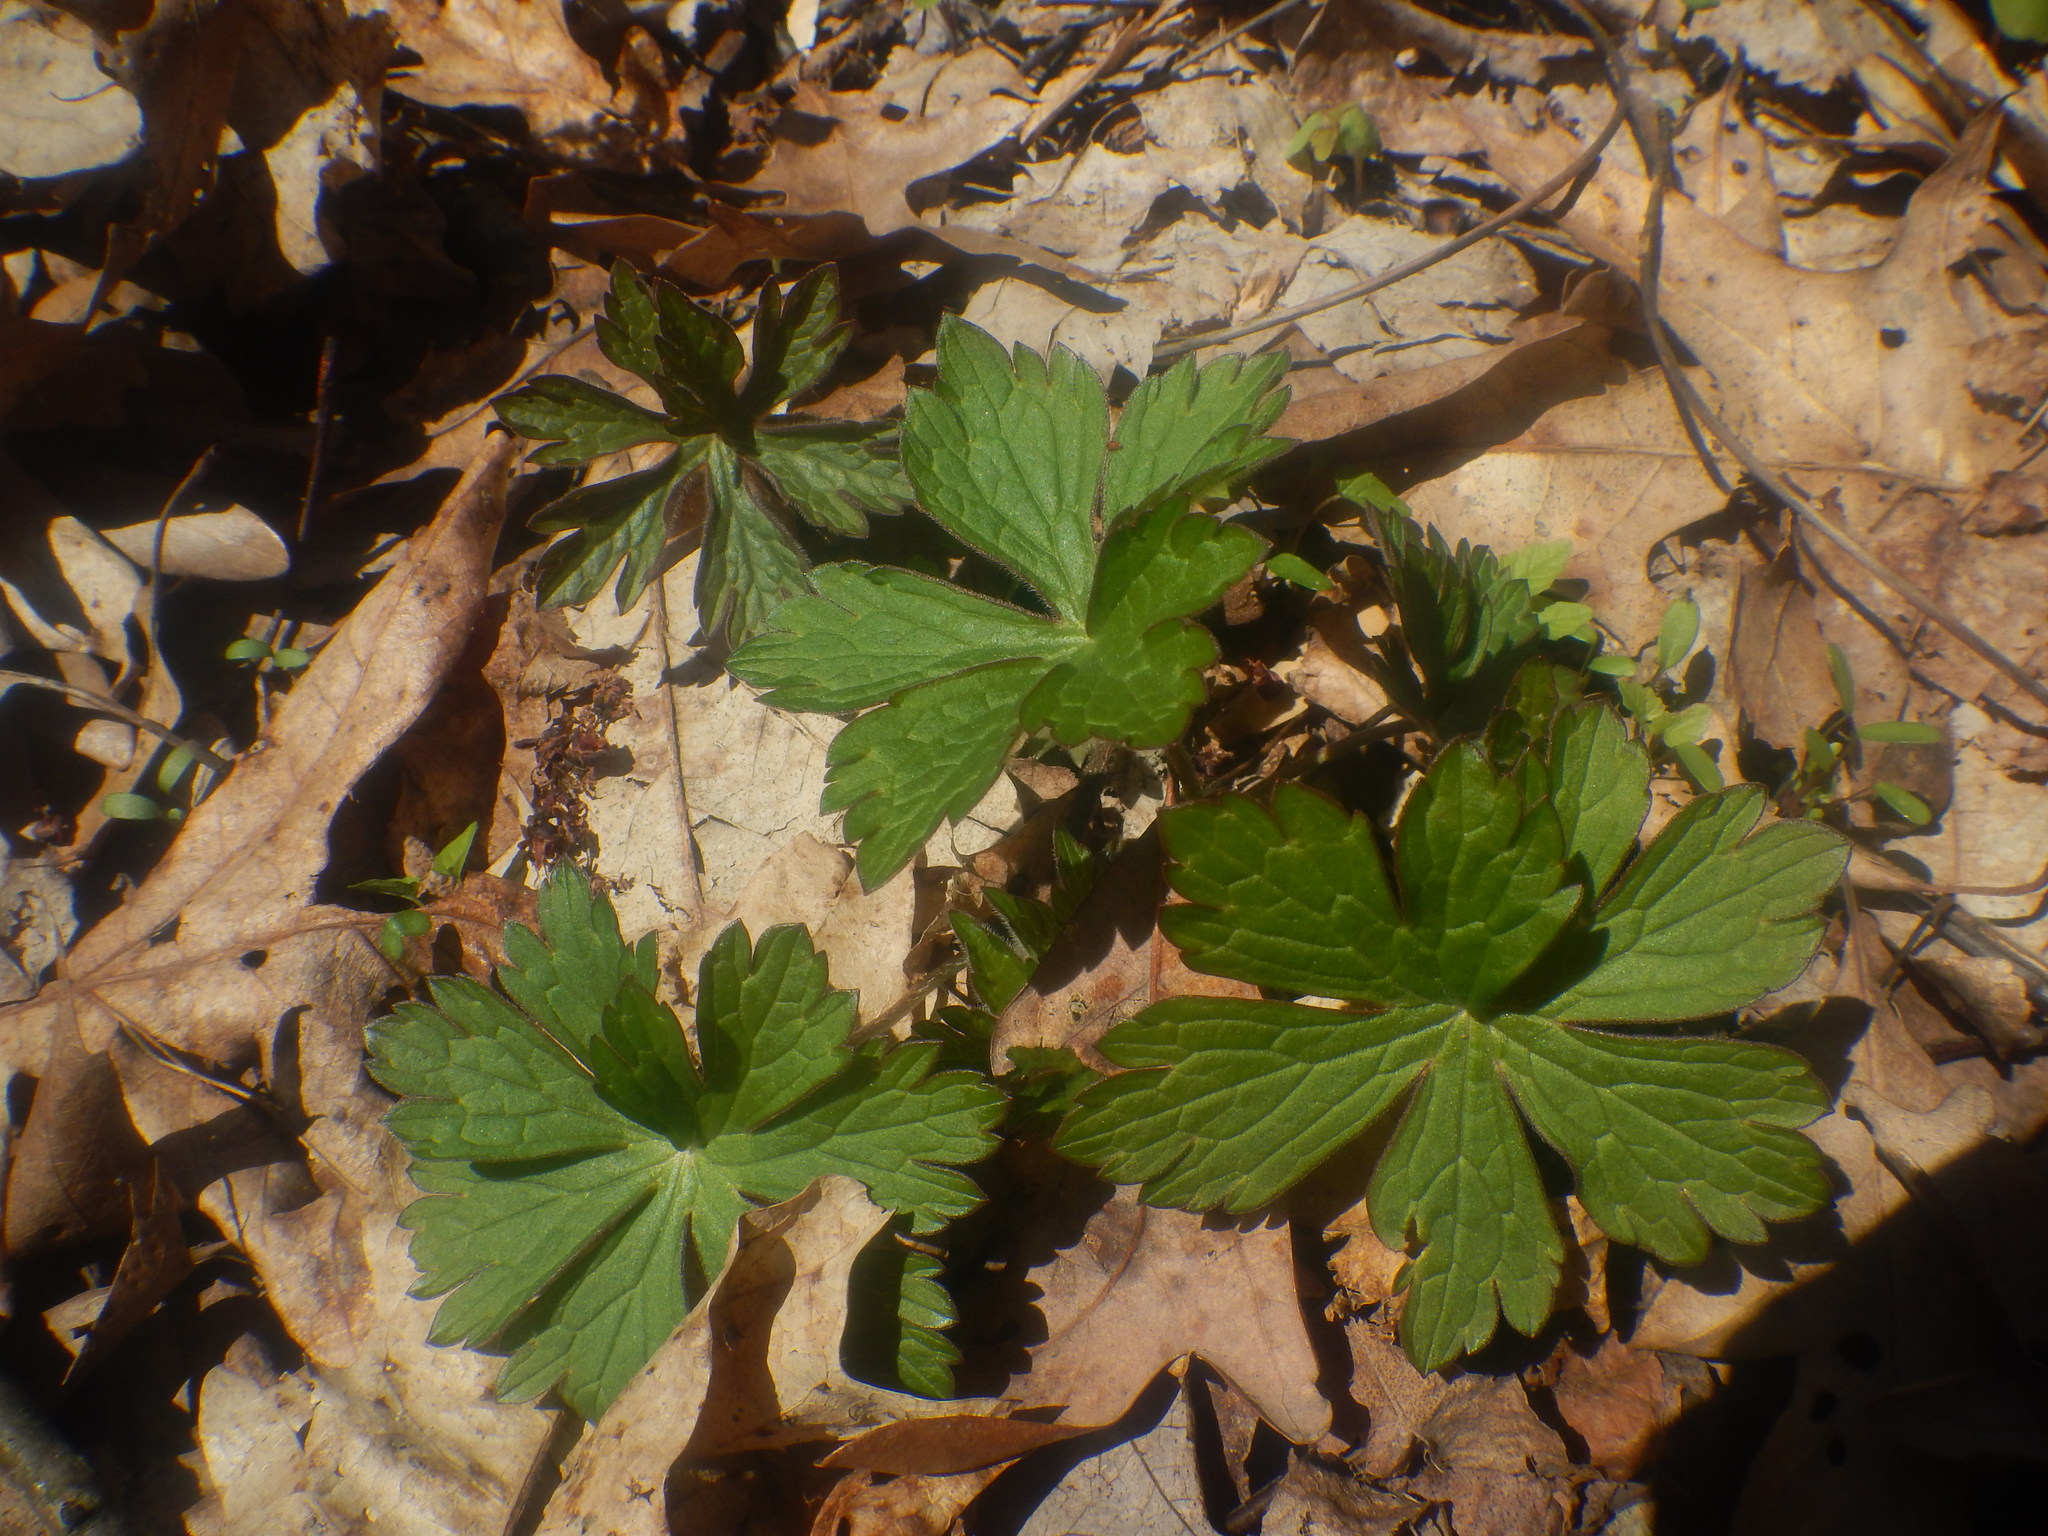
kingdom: Plantae
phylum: Tracheophyta
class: Magnoliopsida
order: Geraniales
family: Geraniaceae
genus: Geranium
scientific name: Geranium maculatum
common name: Spotted geranium
